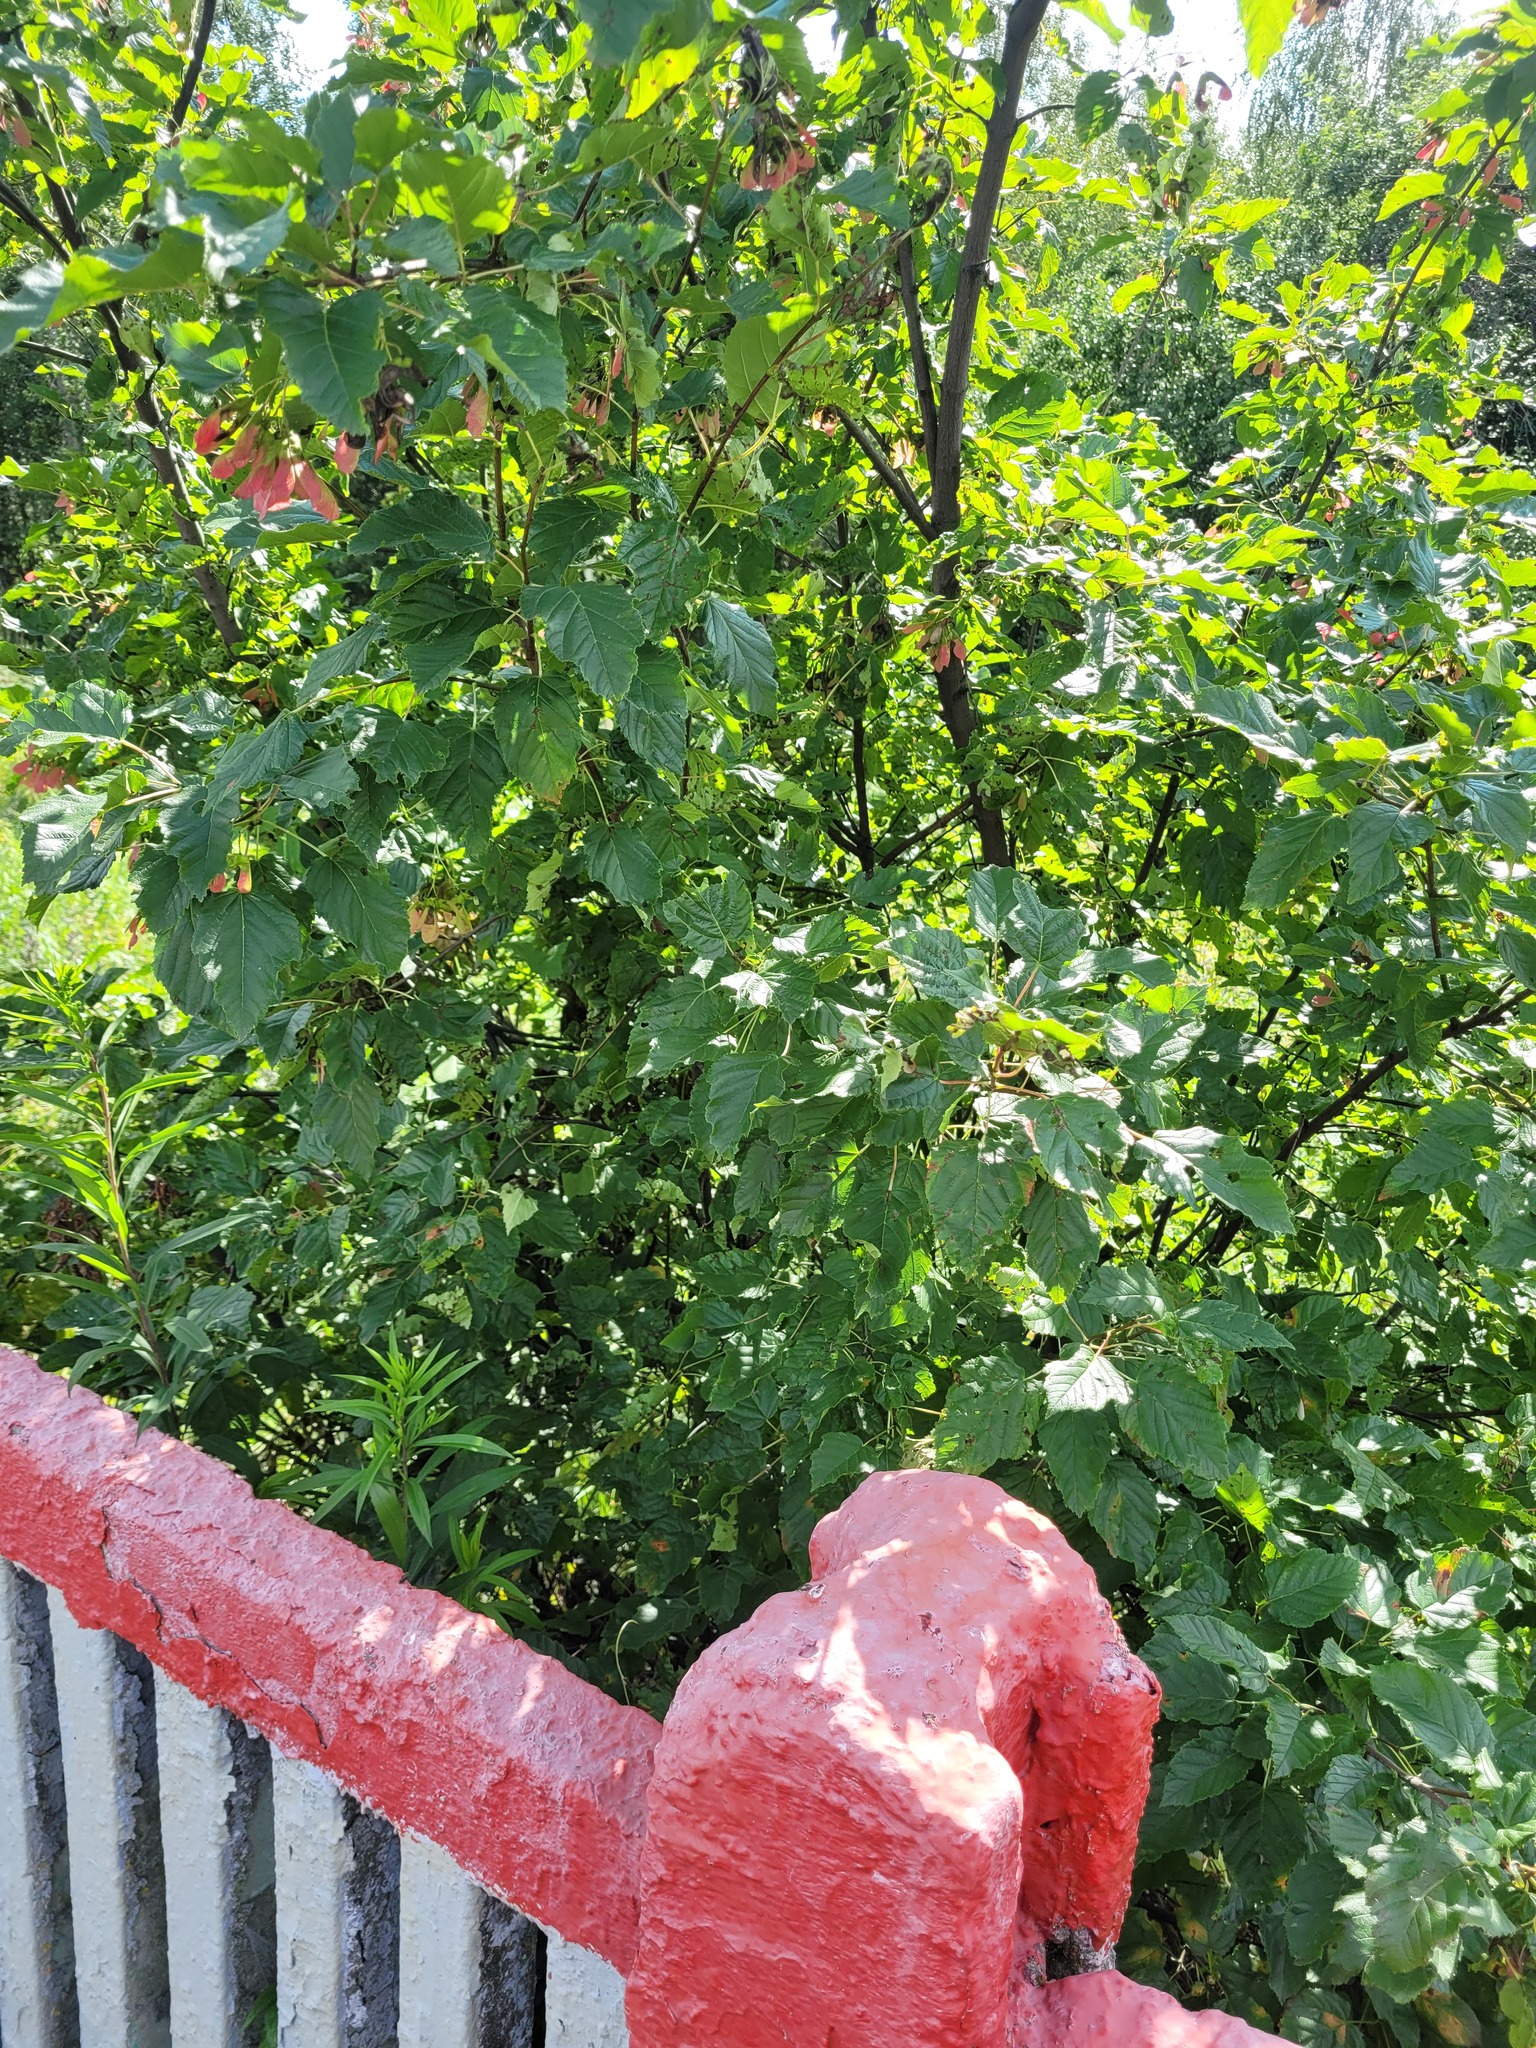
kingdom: Plantae
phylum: Tracheophyta
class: Magnoliopsida
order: Sapindales
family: Sapindaceae
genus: Acer
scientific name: Acer tataricum
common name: Tartar maple
